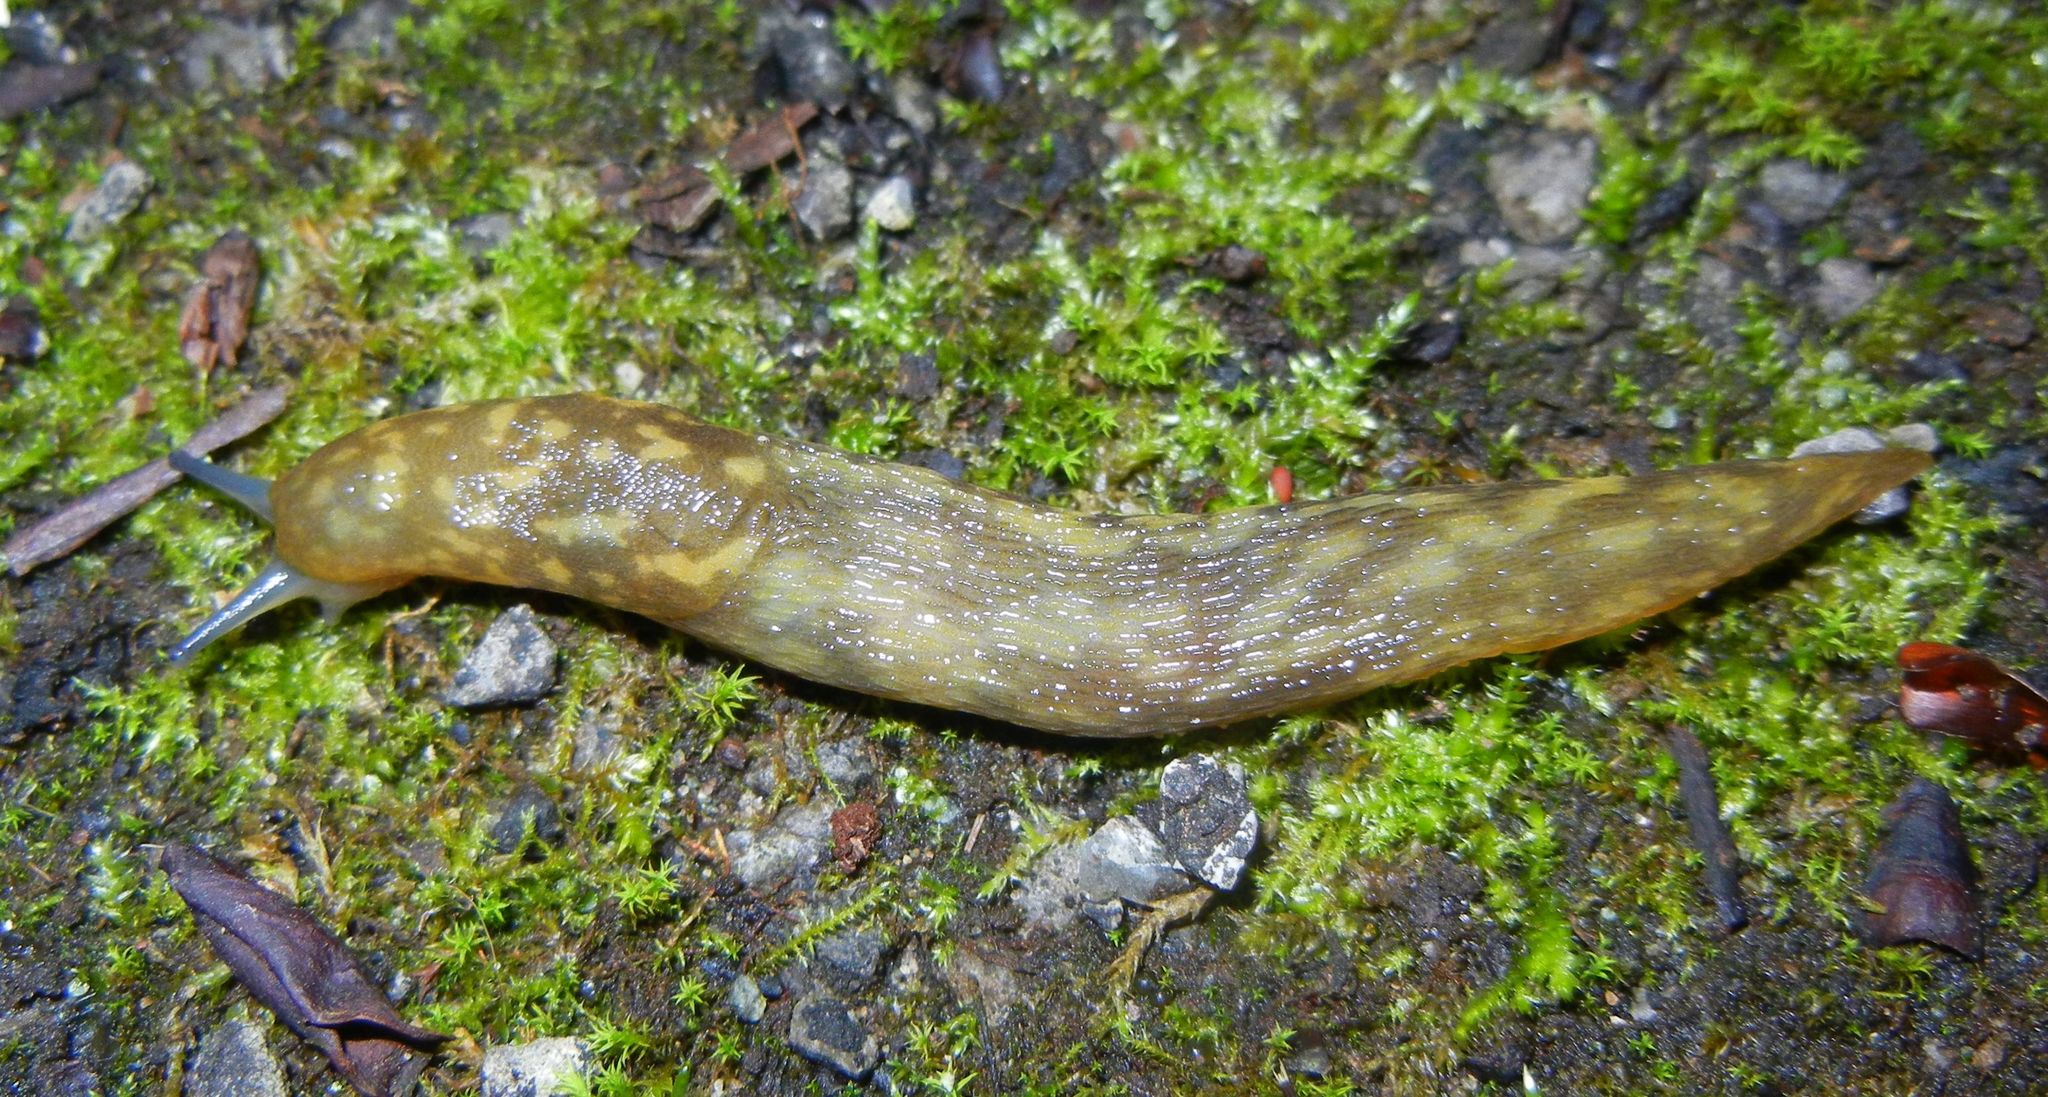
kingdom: Animalia
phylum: Mollusca
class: Gastropoda
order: Stylommatophora
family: Limacidae
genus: Limacus
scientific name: Limacus maculatus
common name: Irish yellow slug
